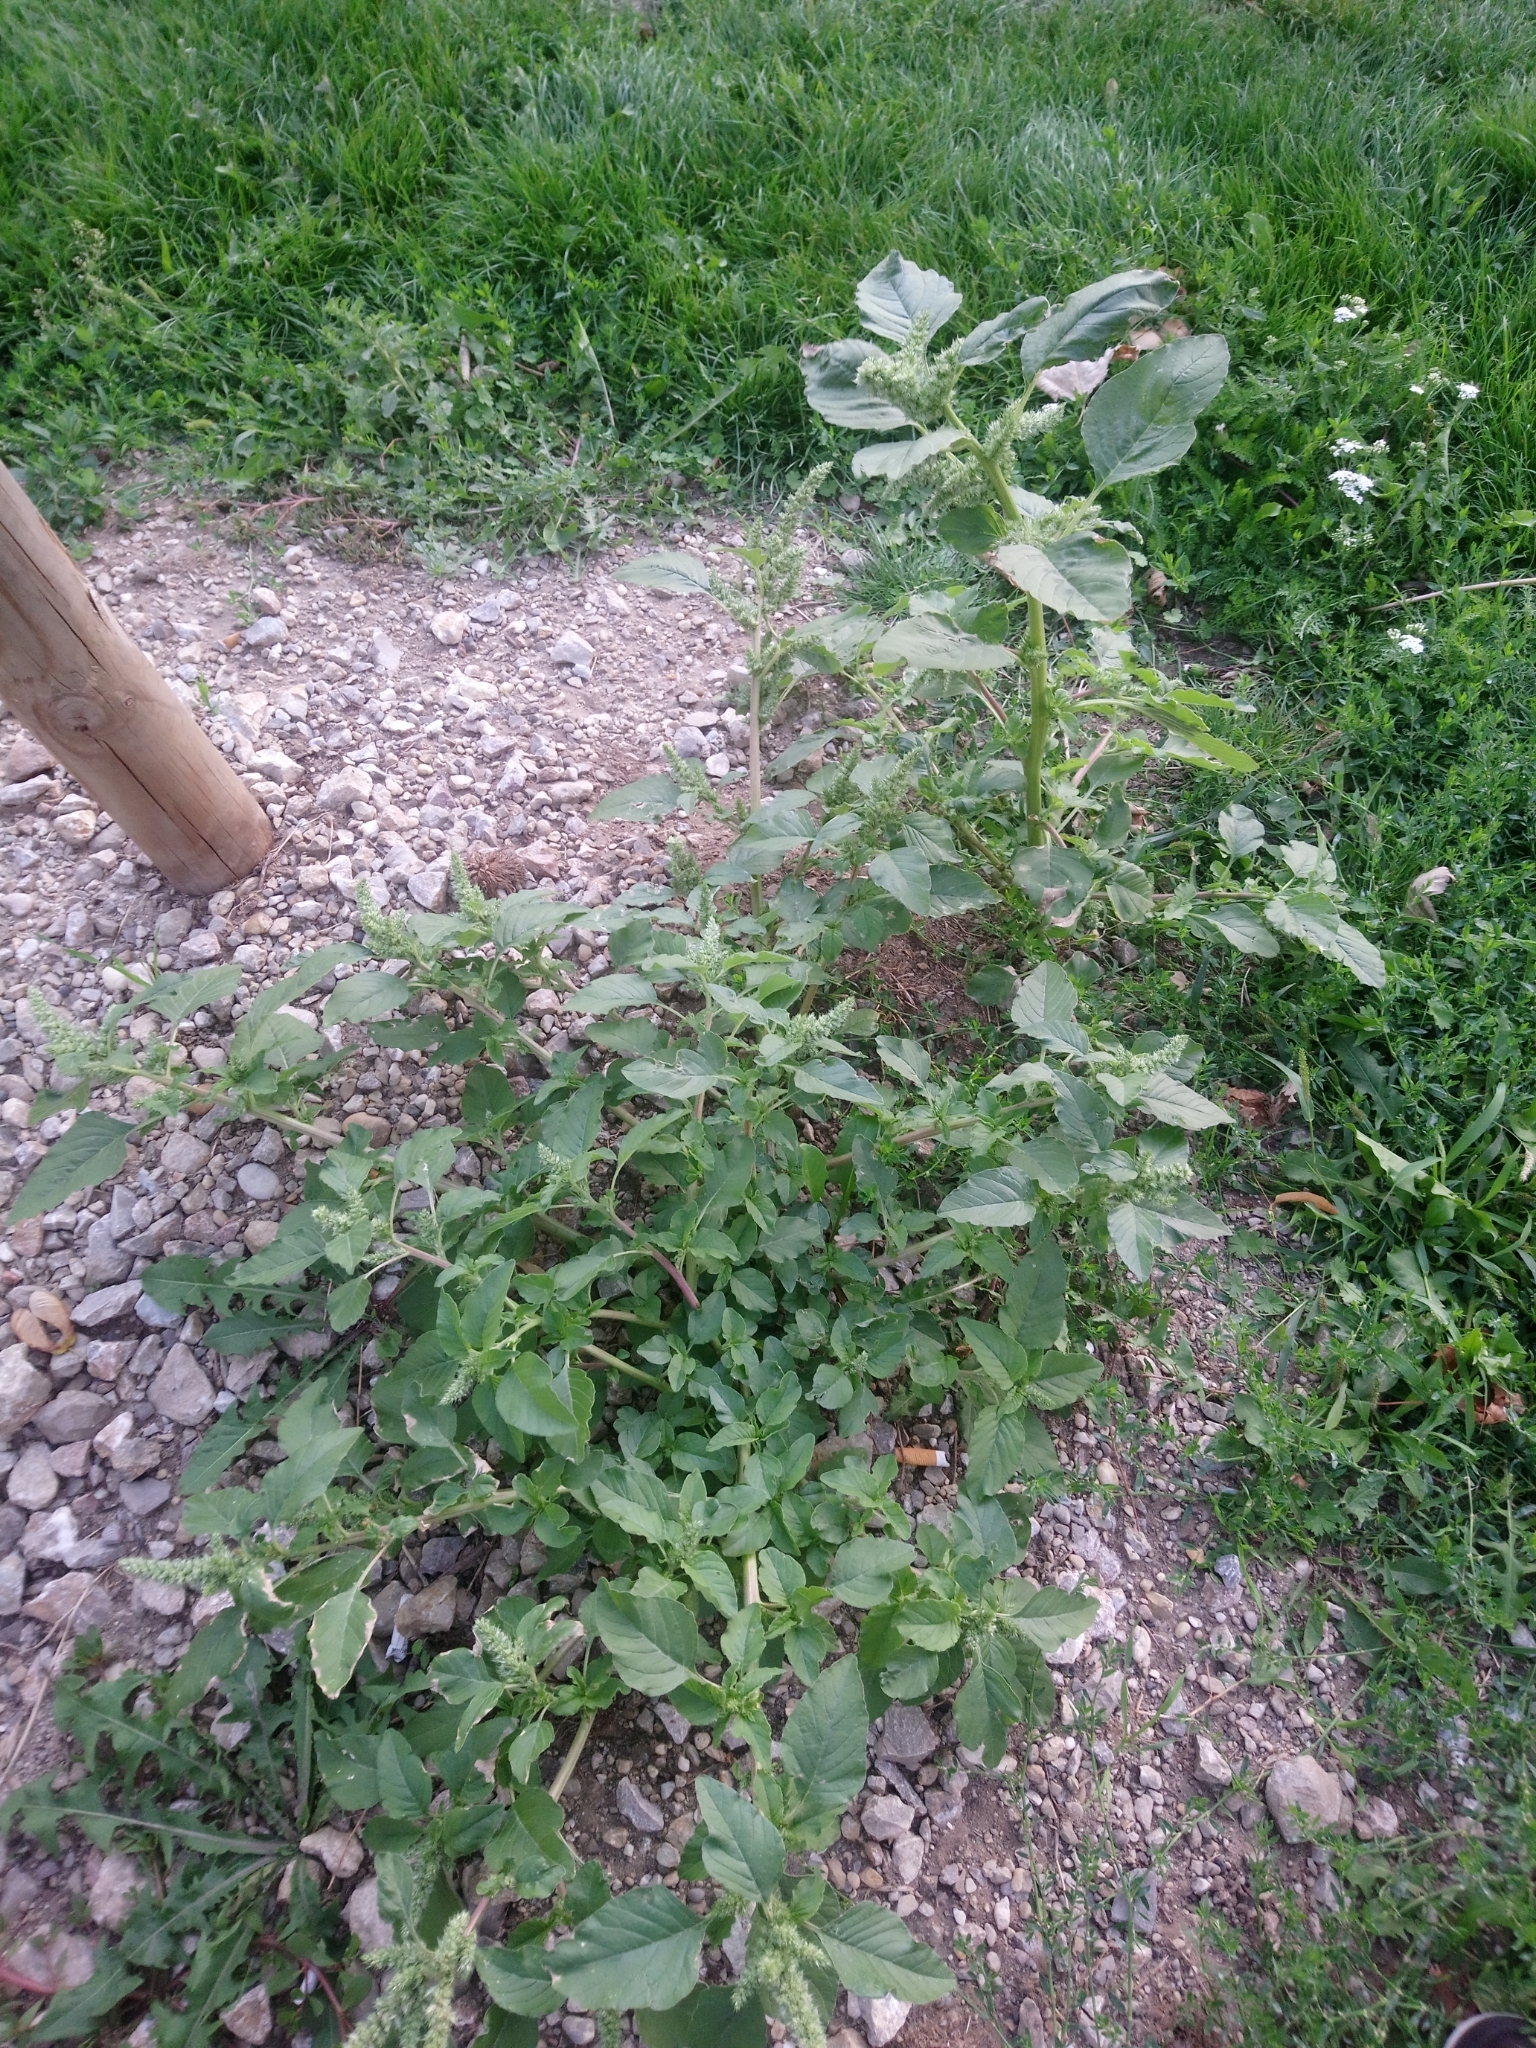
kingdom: Plantae
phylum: Tracheophyta
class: Magnoliopsida
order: Caryophyllales
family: Amaranthaceae
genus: Amaranthus
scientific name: Amaranthus retroflexus
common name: Redroot amaranth
